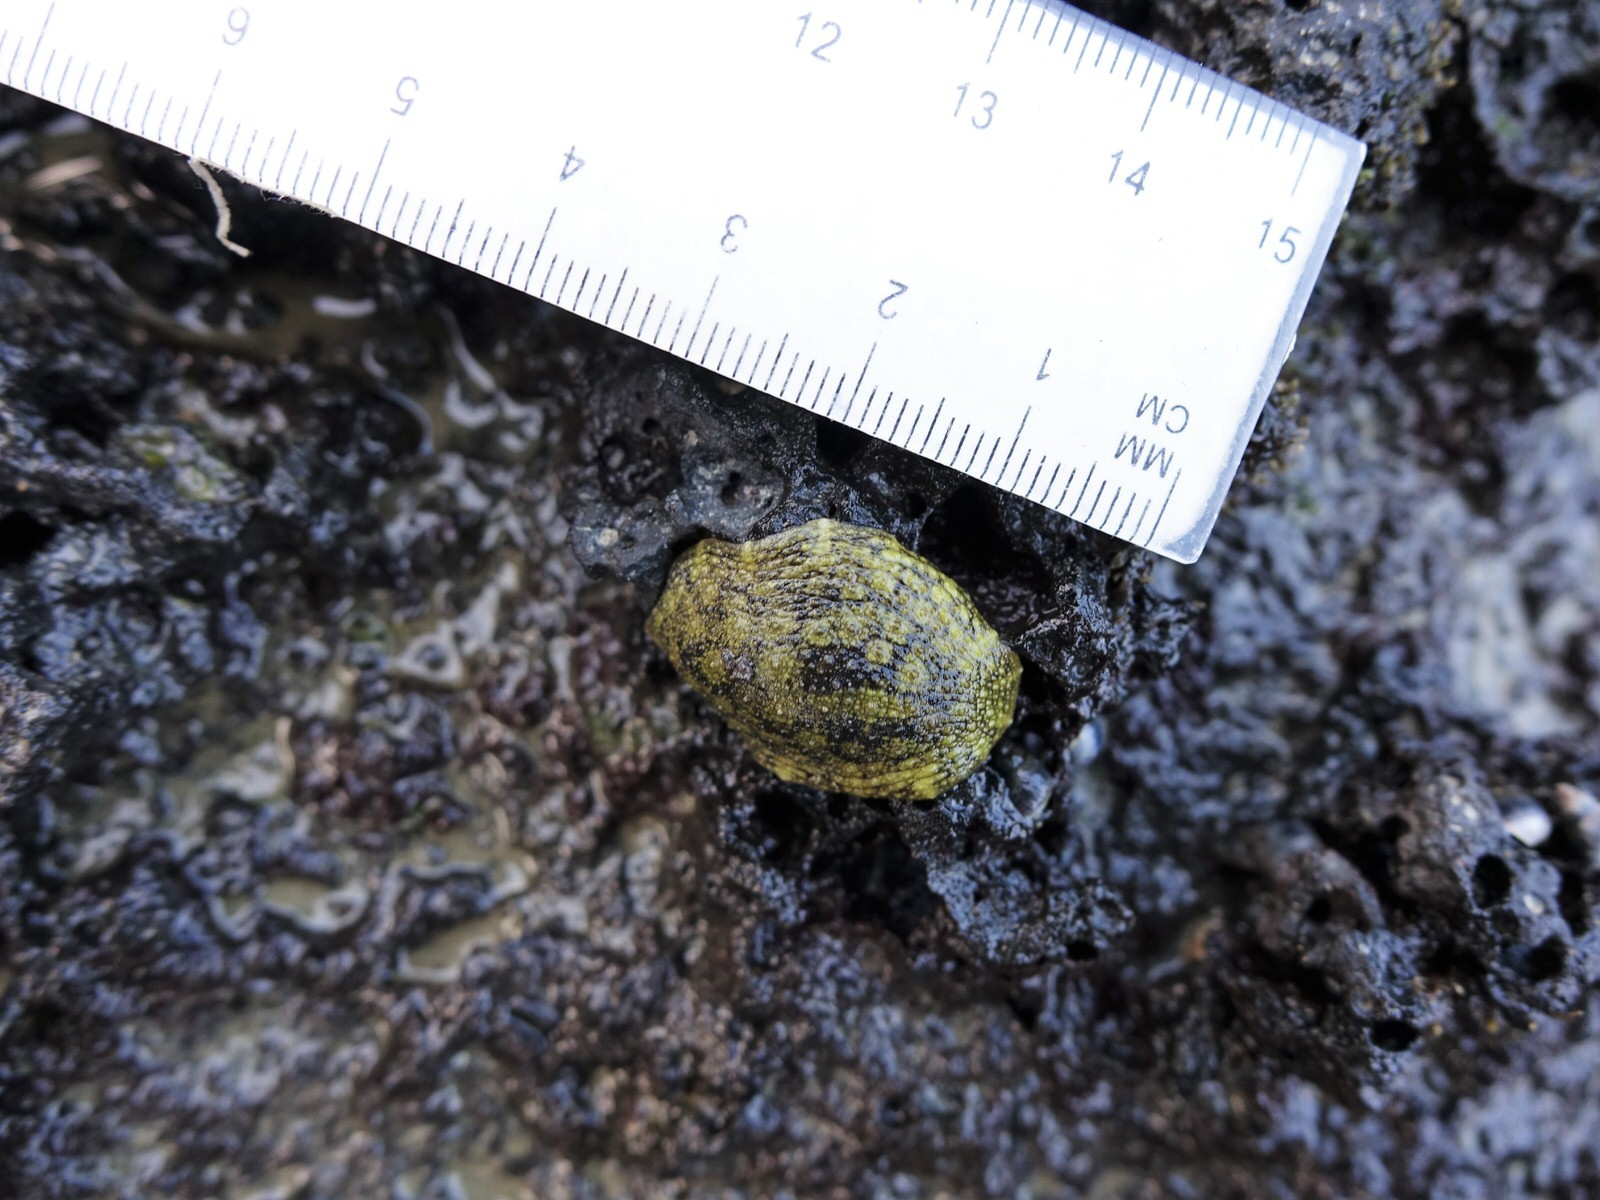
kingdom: Animalia
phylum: Mollusca
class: Gastropoda
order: Systellommatophora
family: Onchidiidae
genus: Onchidella
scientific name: Onchidella nigricans
